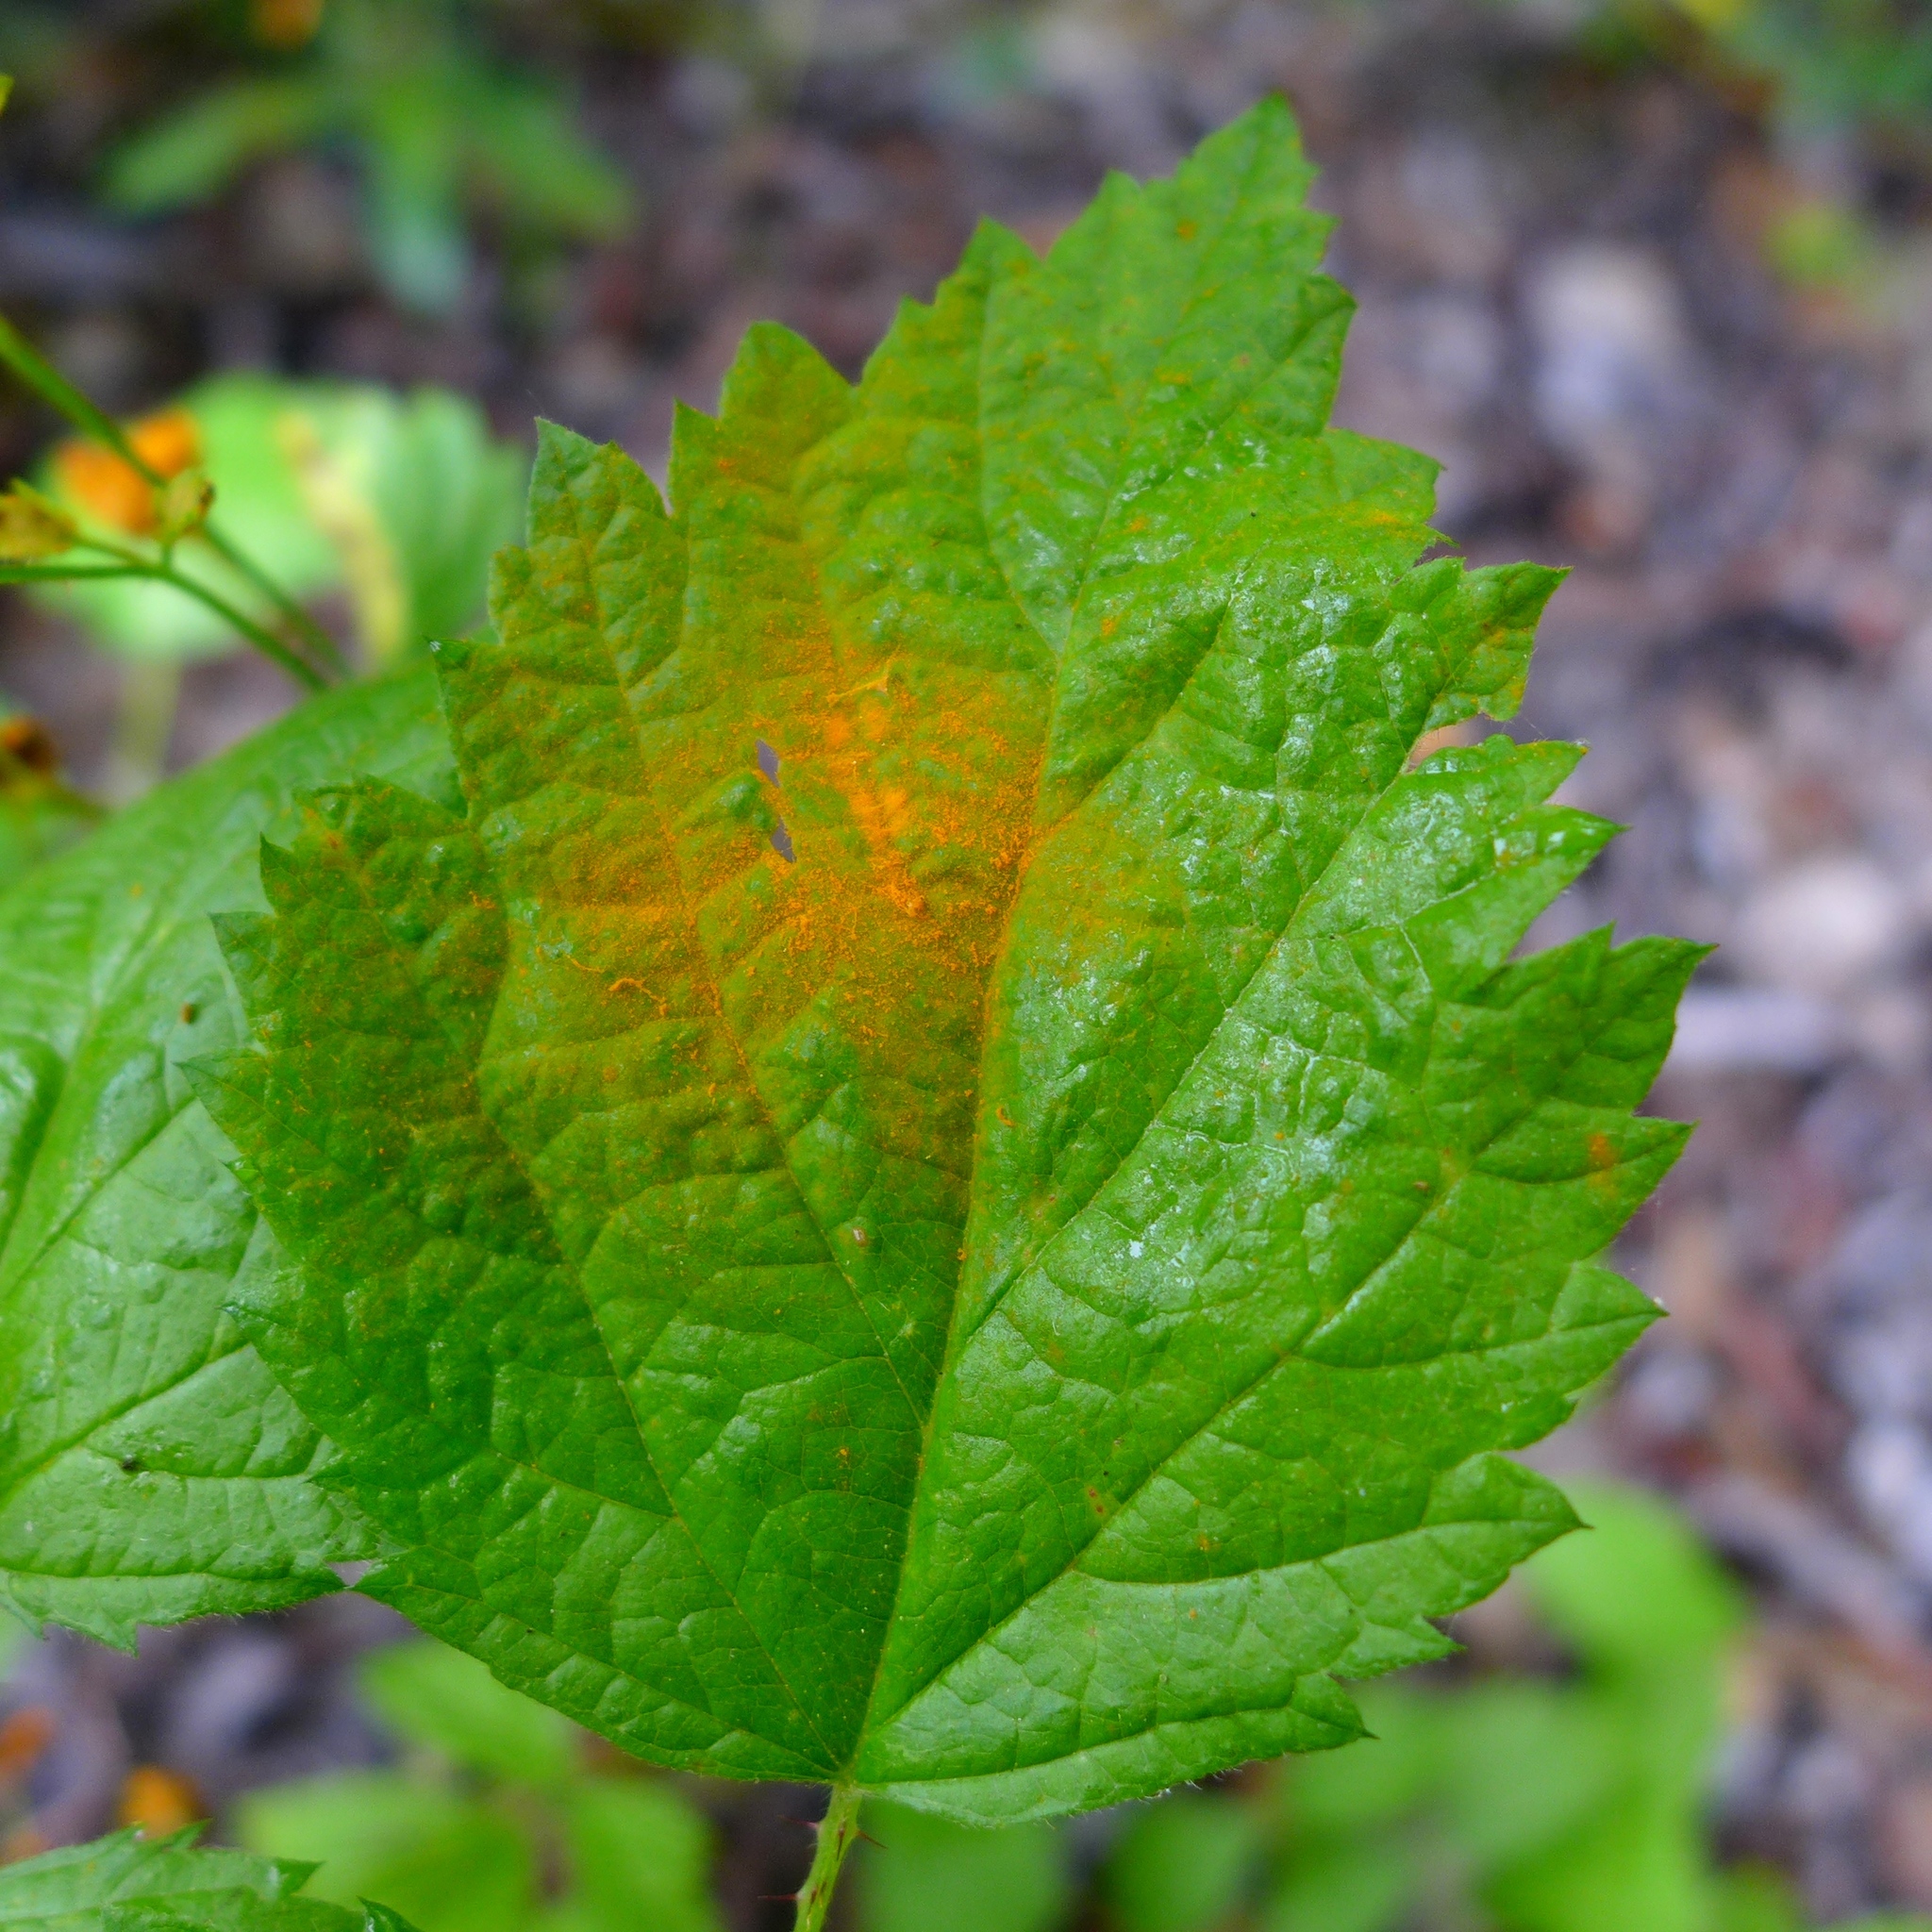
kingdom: Fungi
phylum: Basidiomycota
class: Pucciniomycetes
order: Pucciniales
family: Phragmidiaceae
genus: Gymnoconia
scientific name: Gymnoconia nitens
